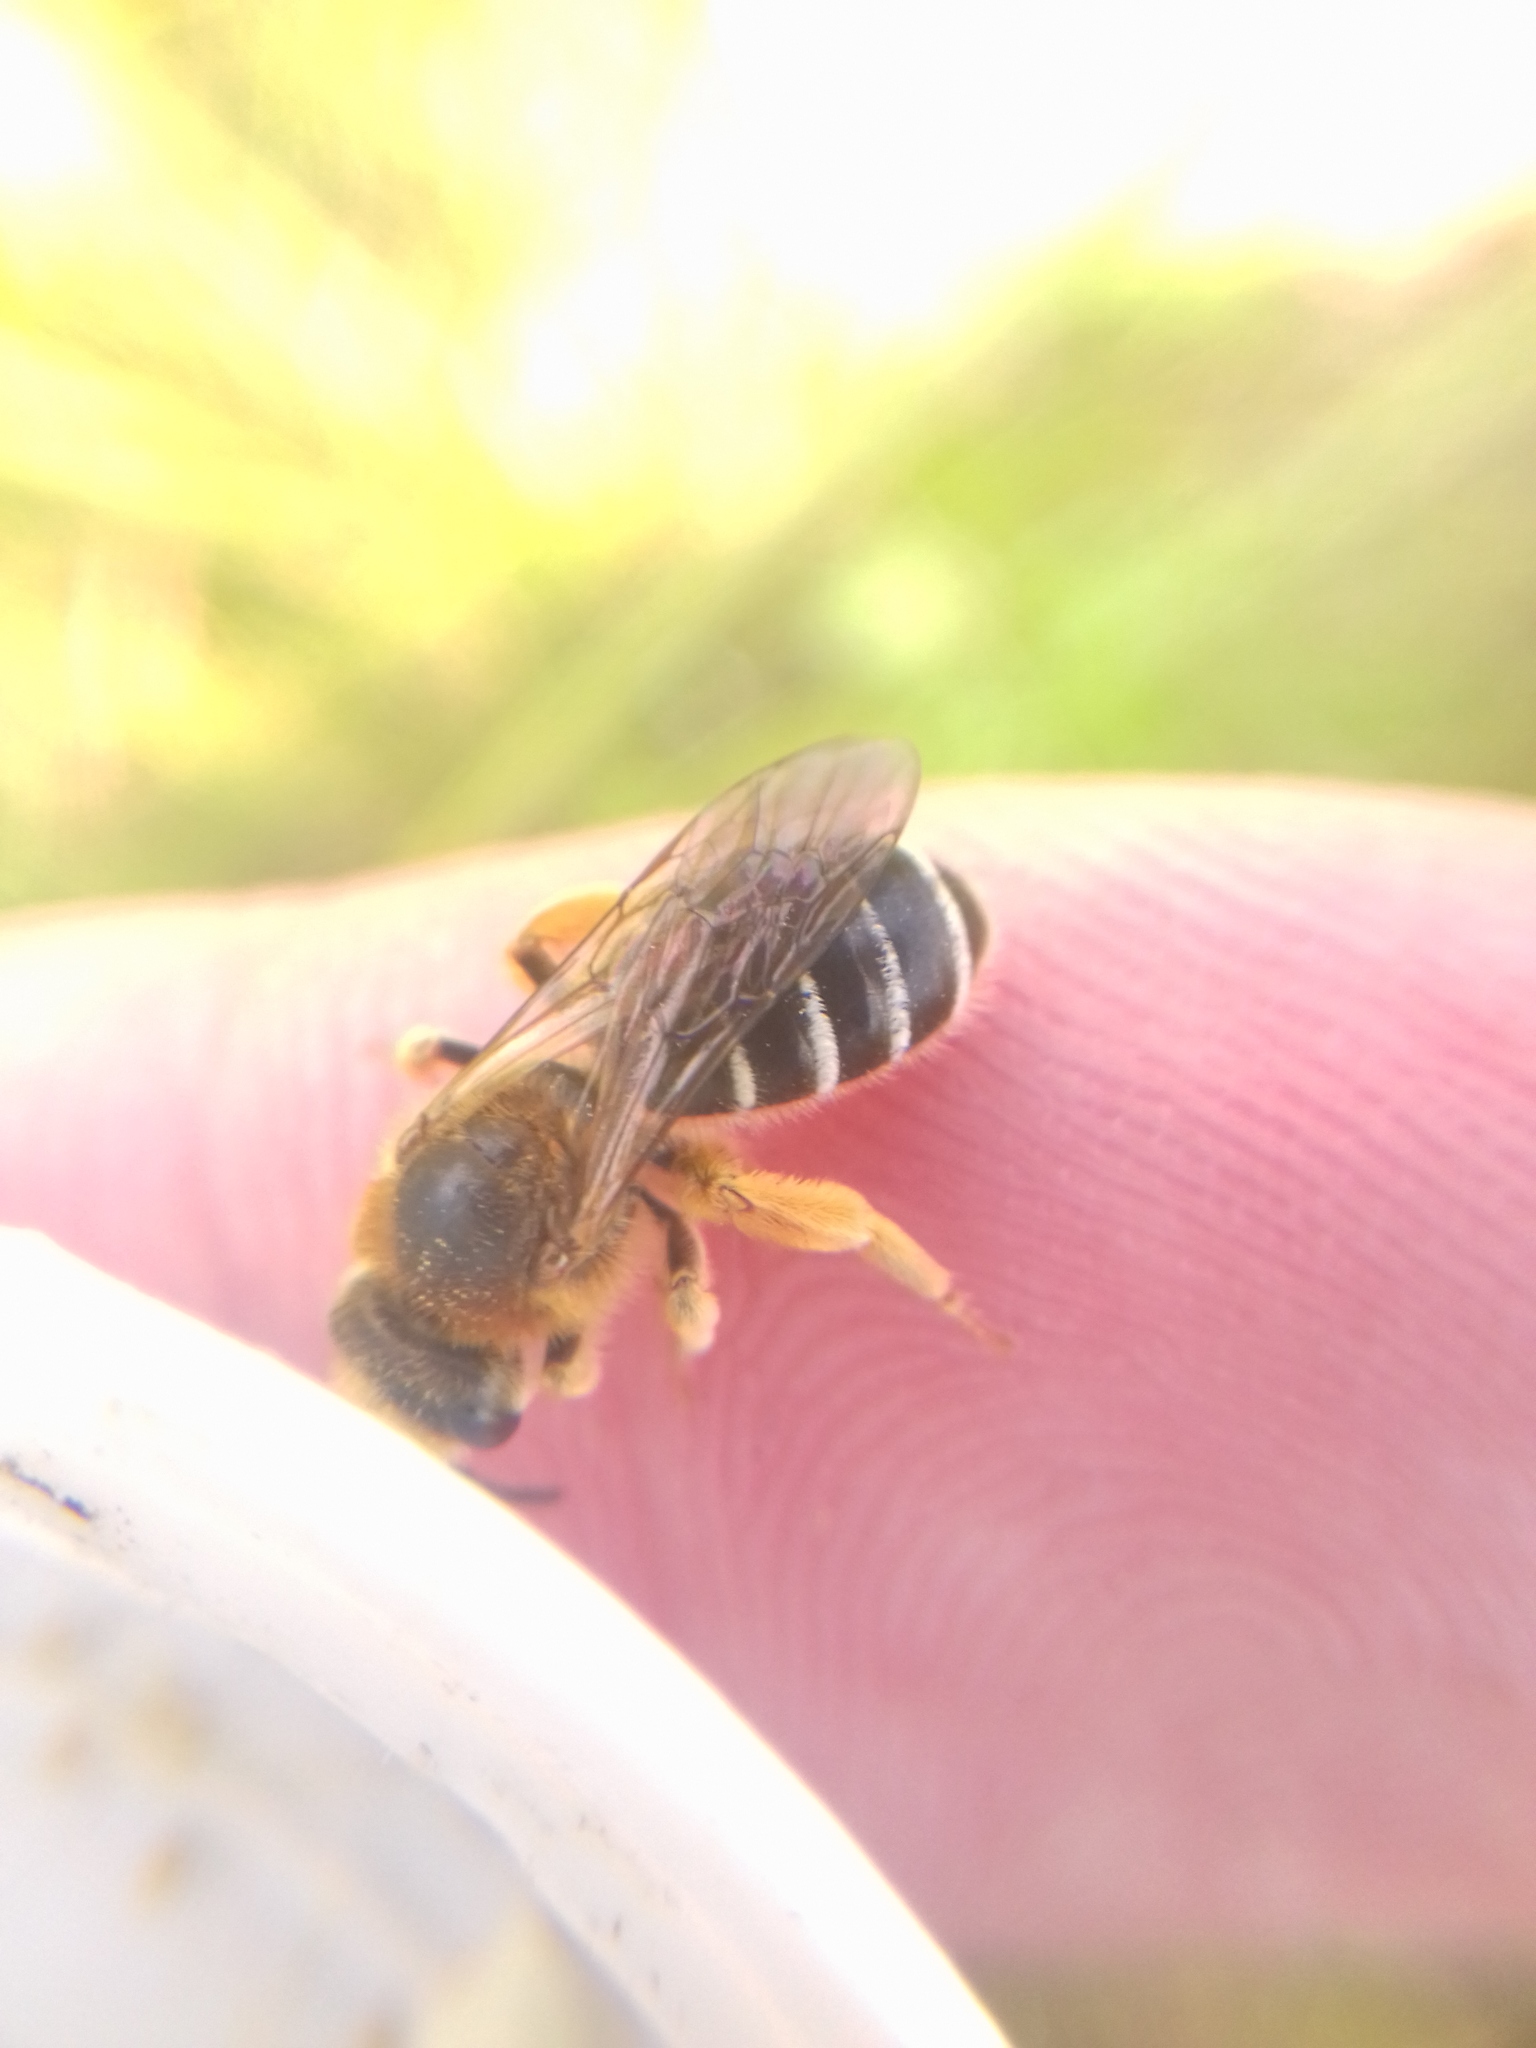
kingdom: Animalia
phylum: Arthropoda
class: Insecta
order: Hymenoptera
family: Apidae
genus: Apis
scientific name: Apis mellifera
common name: Honey bee
